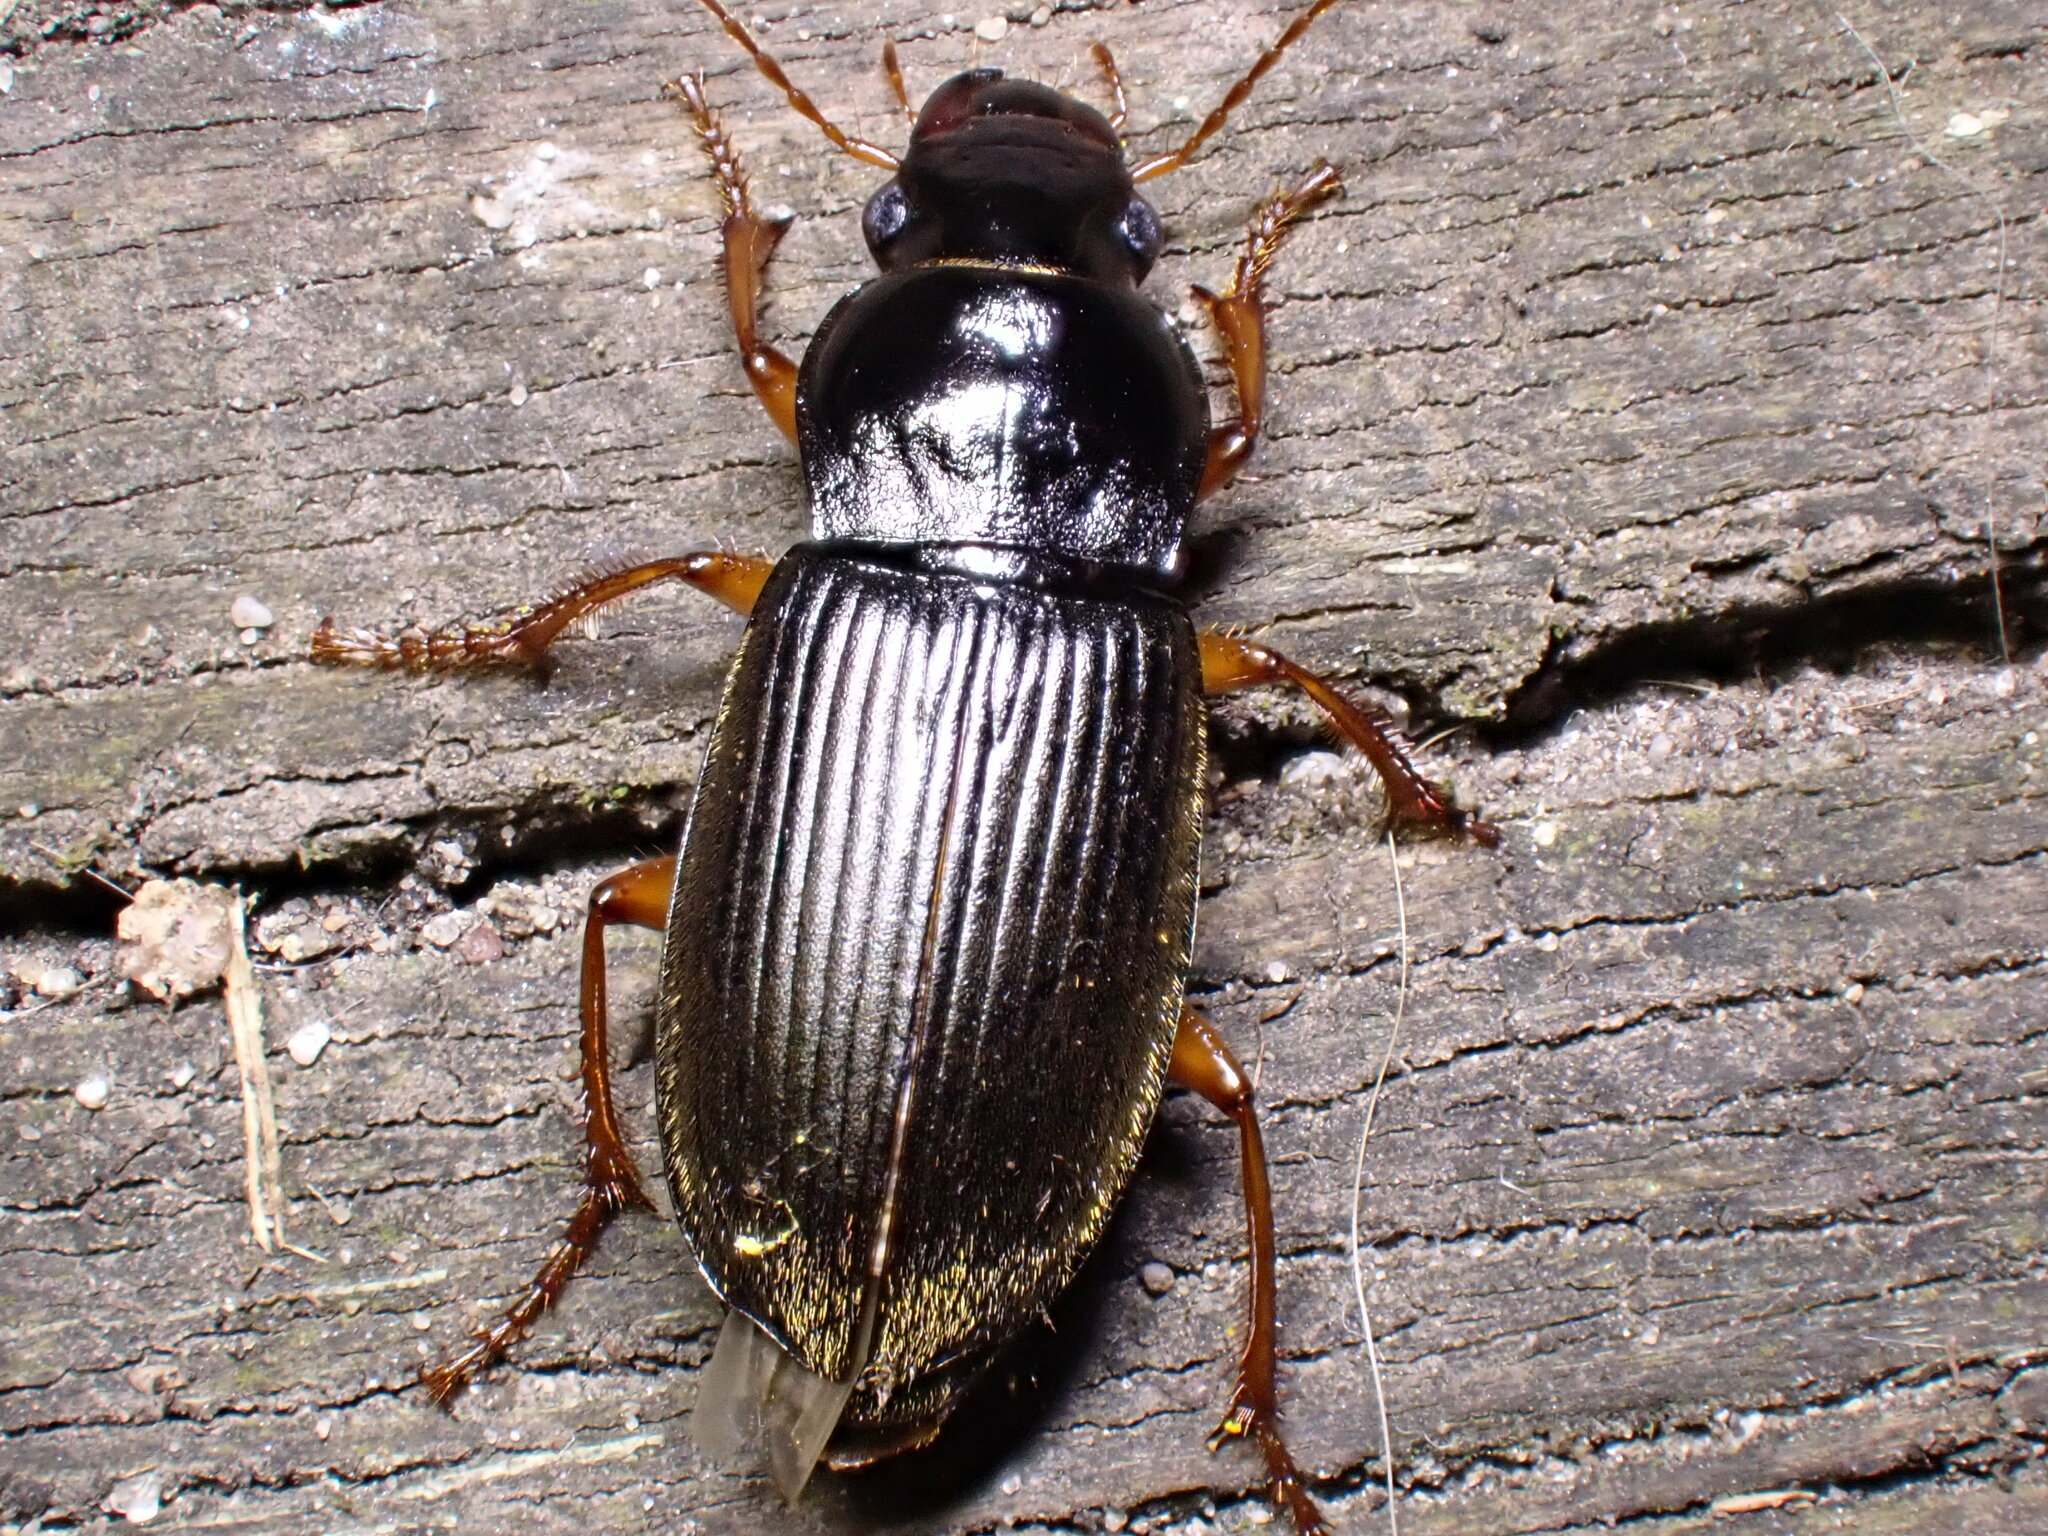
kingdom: Animalia
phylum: Arthropoda
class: Insecta
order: Coleoptera
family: Carabidae
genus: Harpalus
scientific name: Harpalus rufipes
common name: Strawberry harp ground beetle
